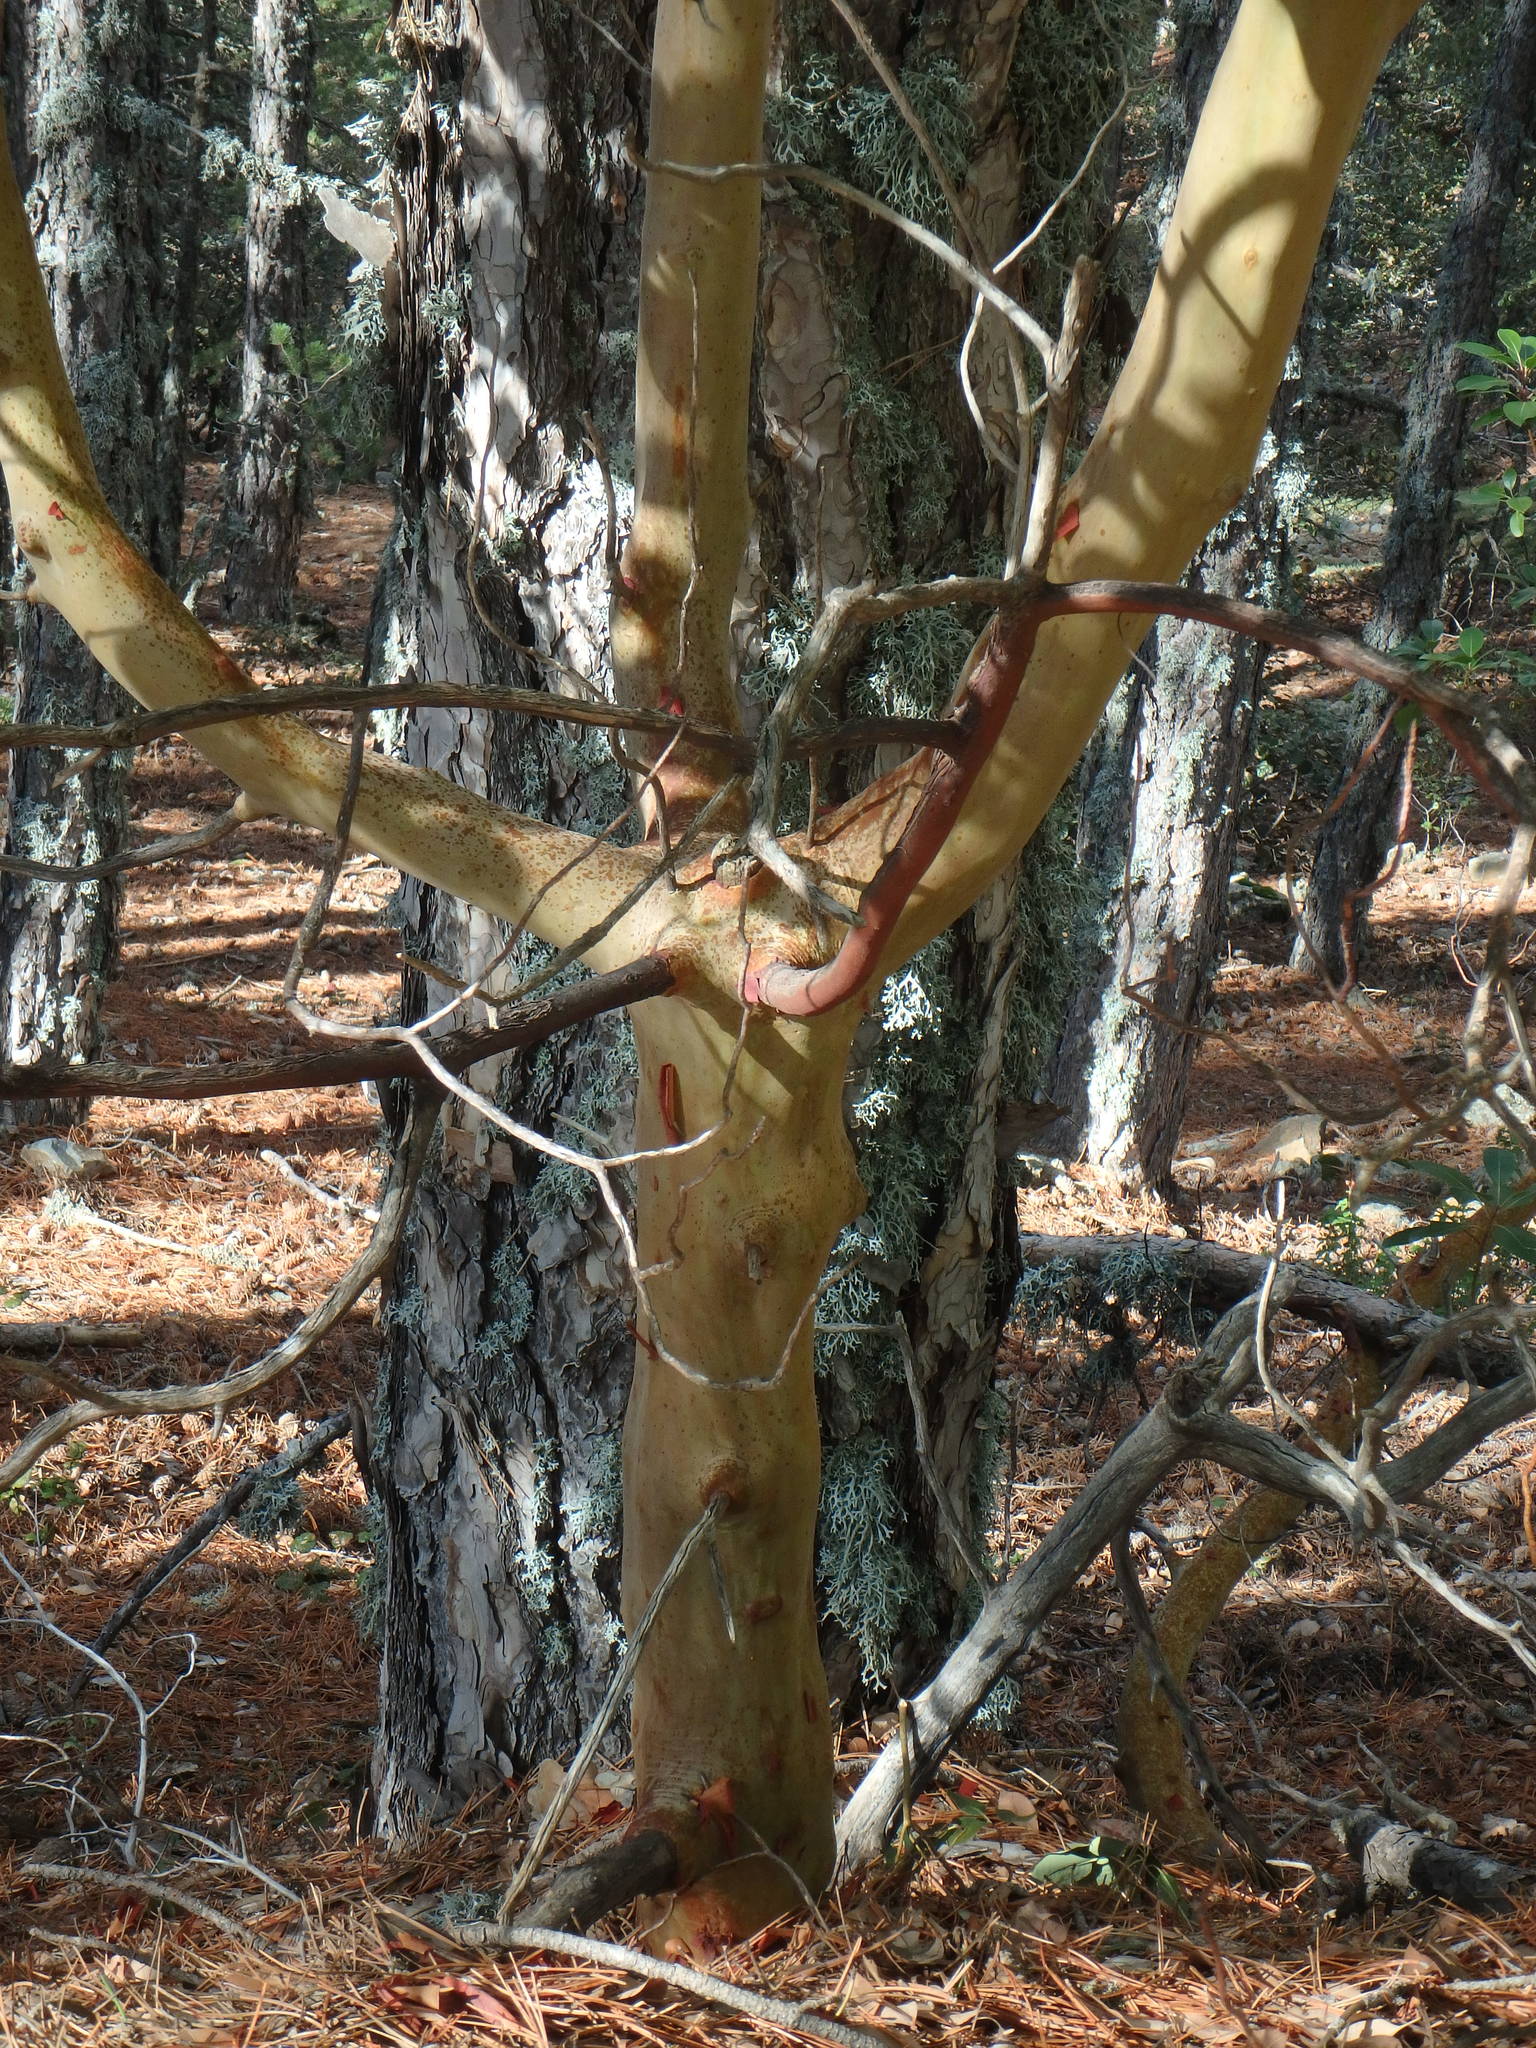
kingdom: Plantae
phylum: Tracheophyta
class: Magnoliopsida
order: Ericales
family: Ericaceae
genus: Arbutus
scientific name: Arbutus andrachne
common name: Greek strawberry tree
